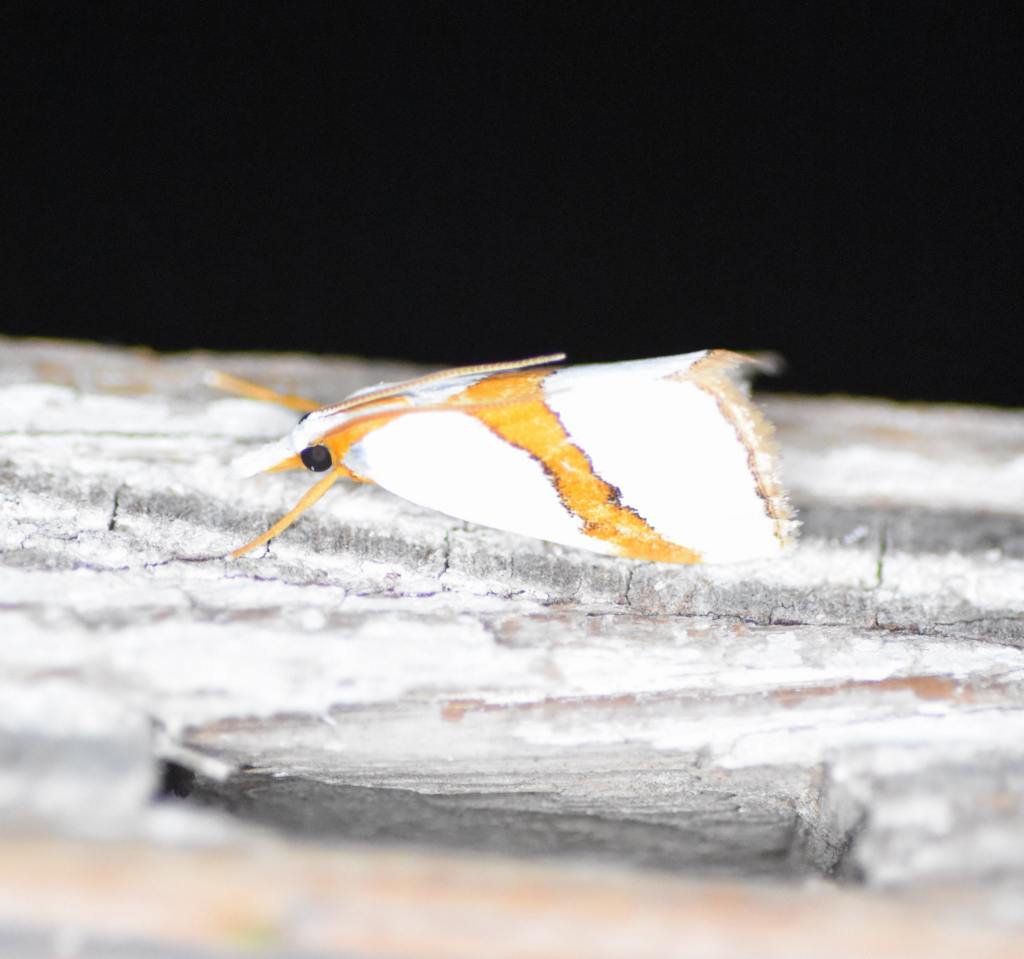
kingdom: Animalia
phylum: Arthropoda
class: Insecta
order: Lepidoptera
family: Crambidae
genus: Vaxi
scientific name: Vaxi critica
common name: Straight-lined vaxi moth
